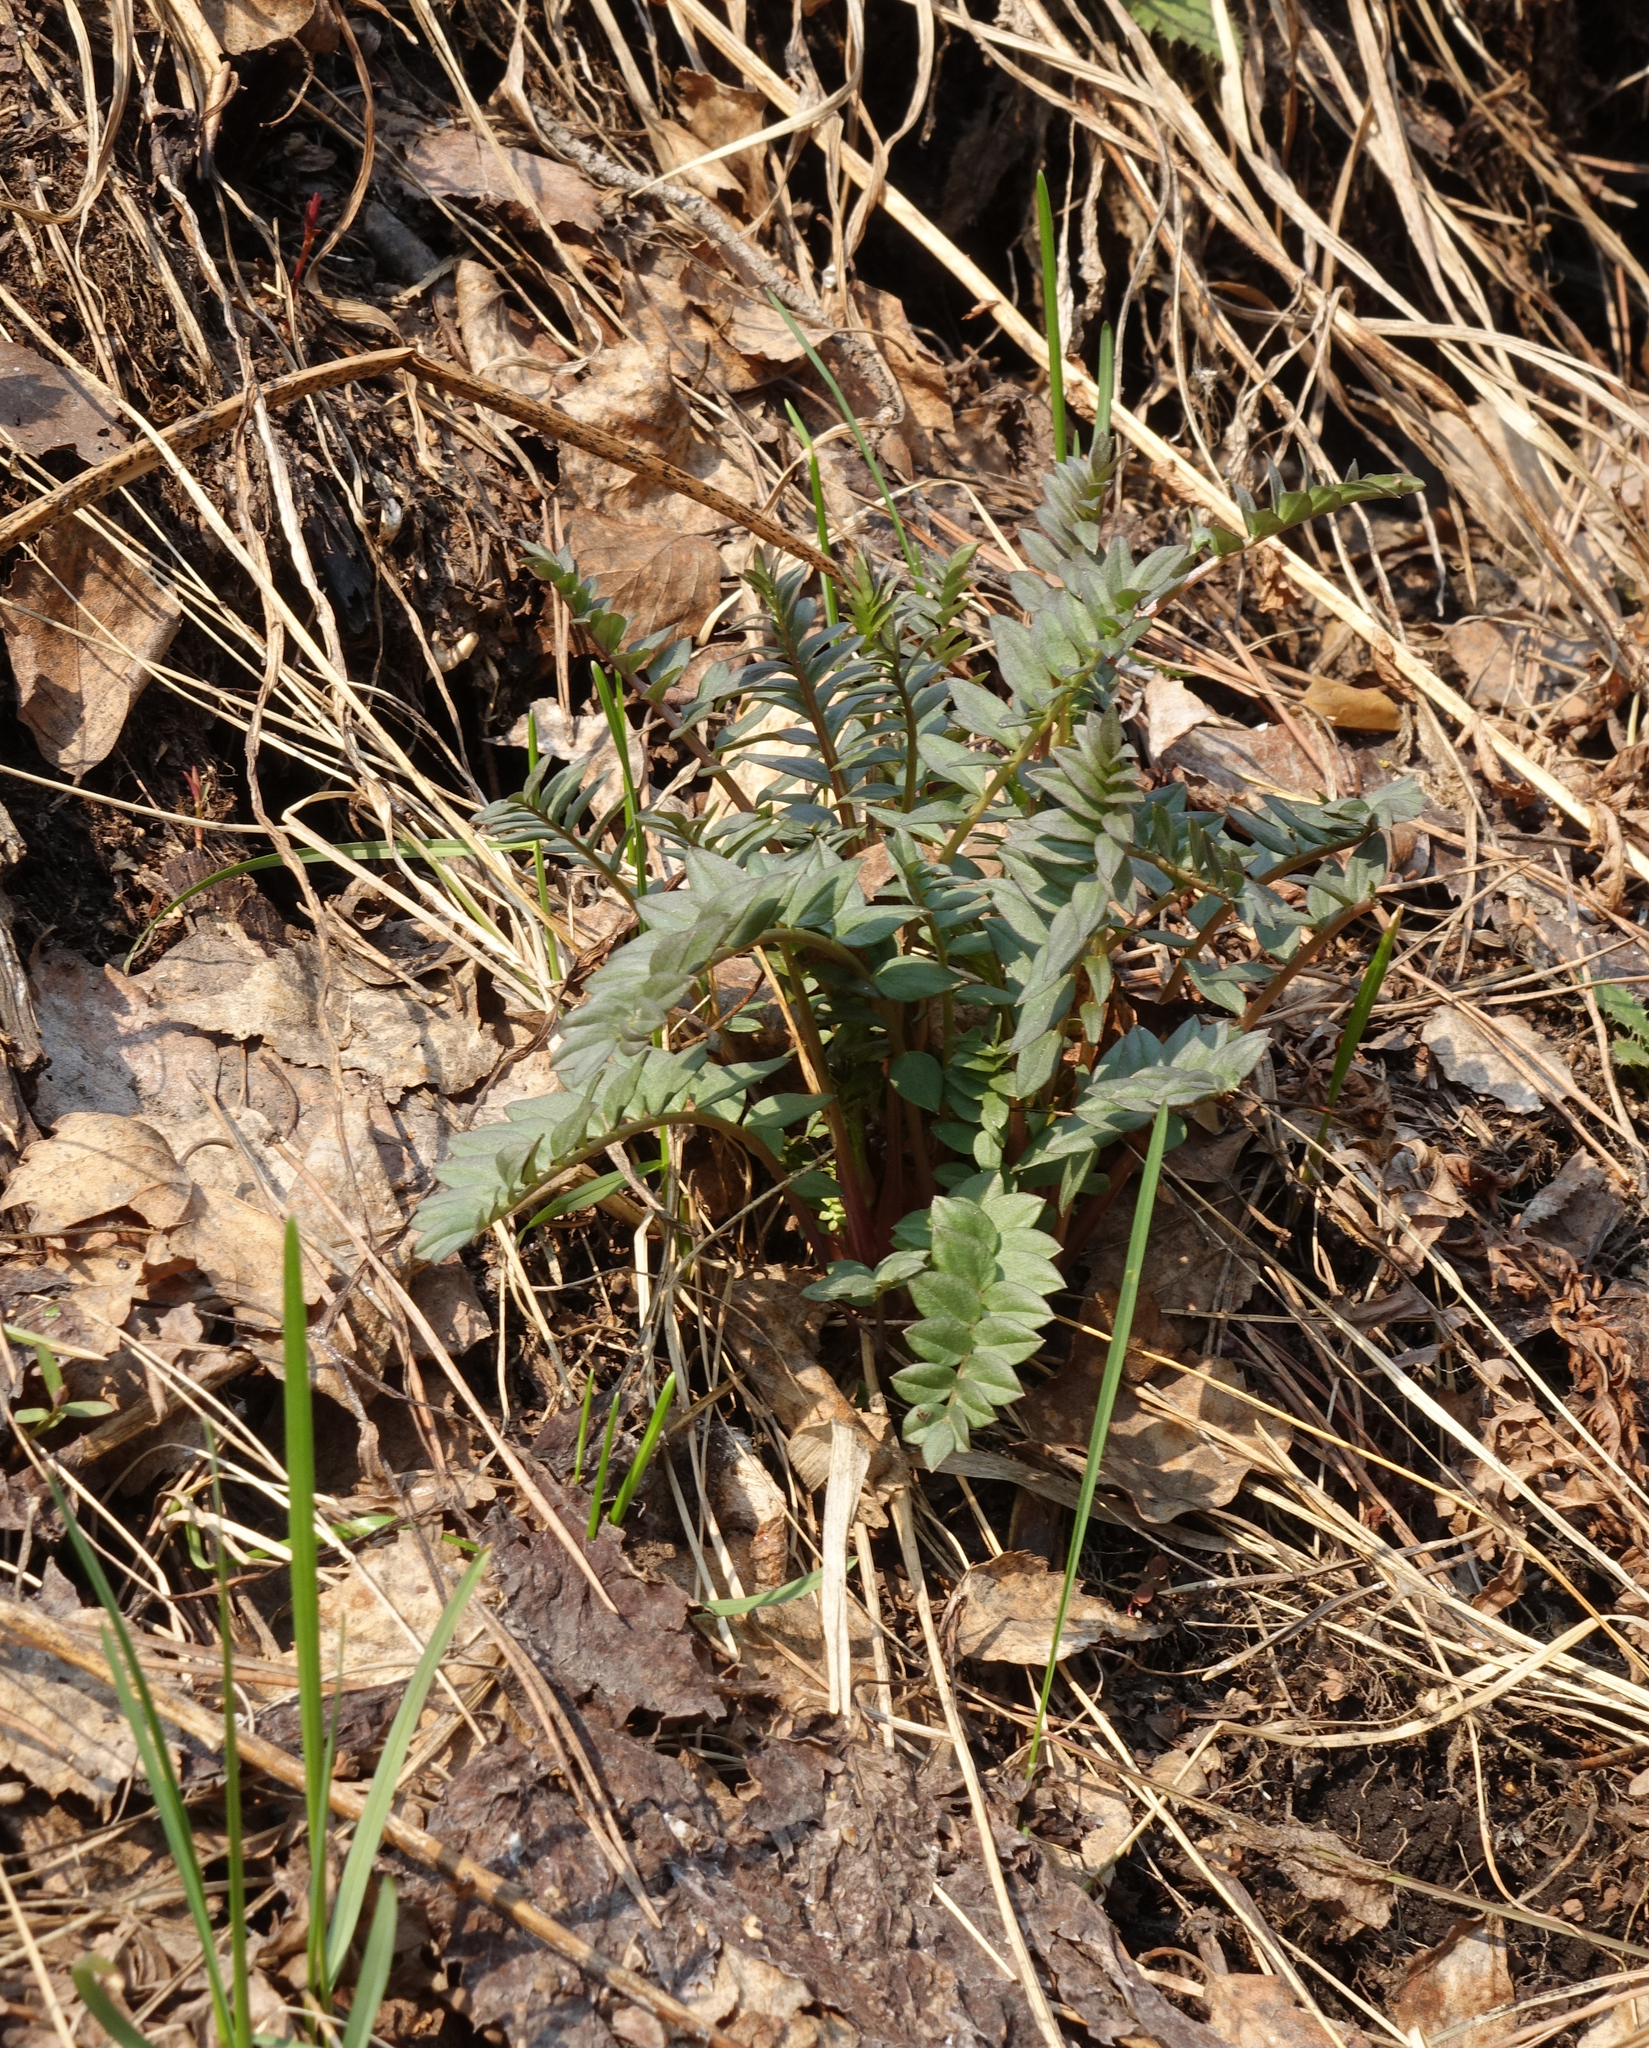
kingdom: Plantae
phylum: Tracheophyta
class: Magnoliopsida
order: Ericales
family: Polemoniaceae
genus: Polemonium
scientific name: Polemonium caeruleum
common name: Jacob's-ladder
